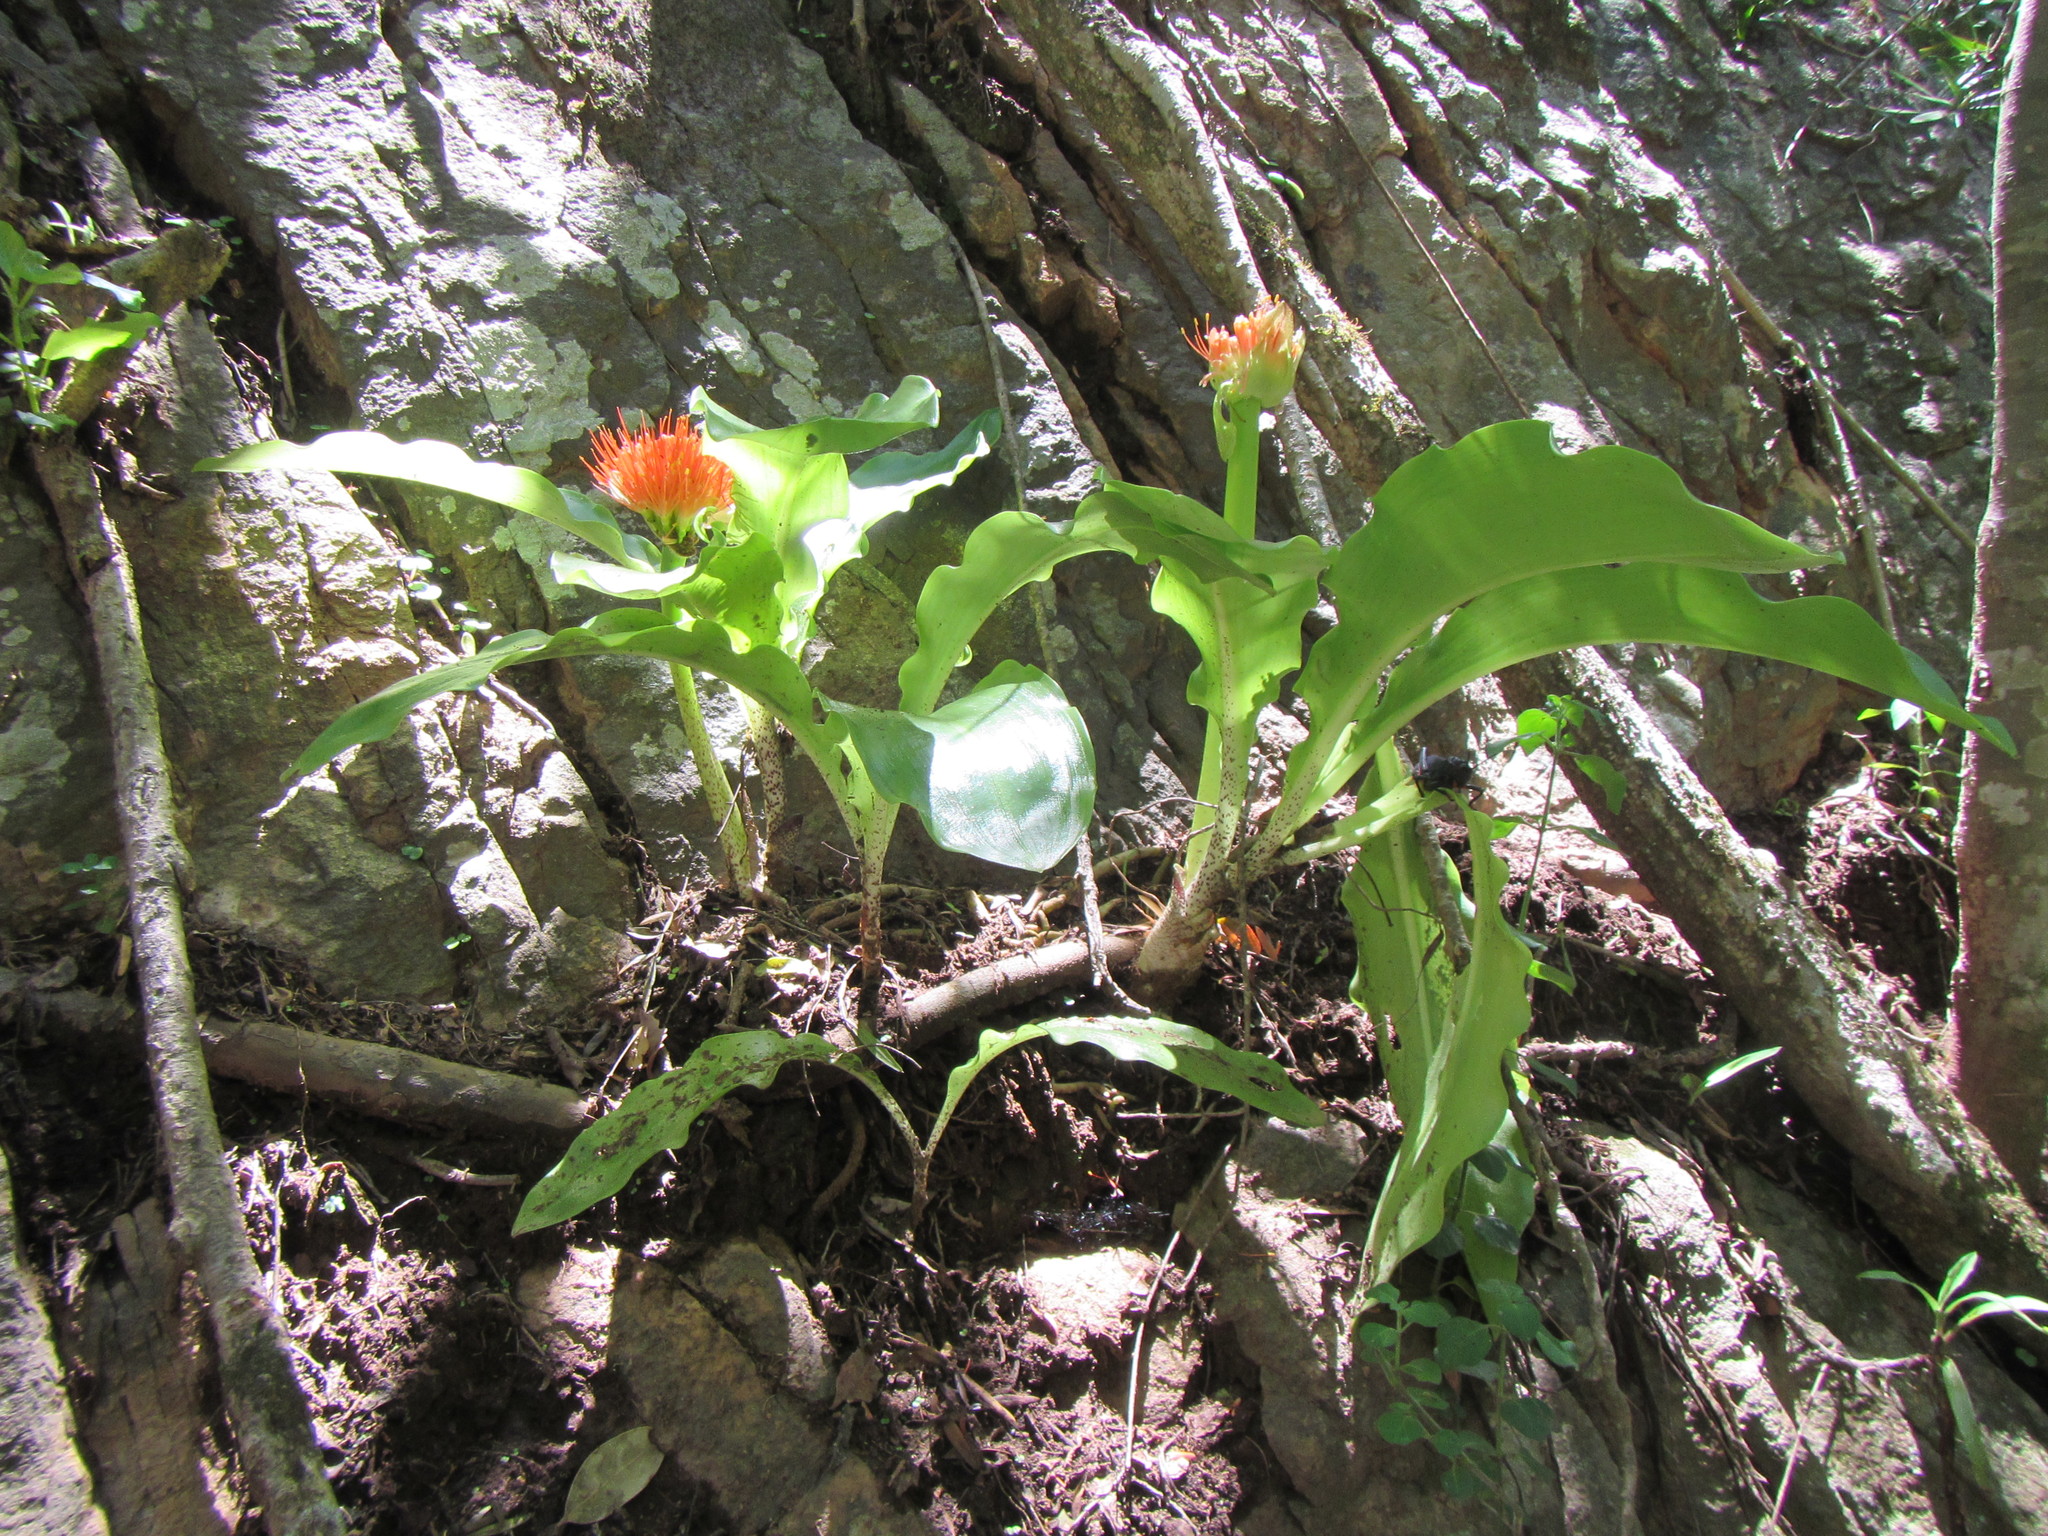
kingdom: Plantae
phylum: Tracheophyta
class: Liliopsida
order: Asparagales
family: Amaryllidaceae
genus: Scadoxus
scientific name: Scadoxus puniceus
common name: Royal-paintbrush
